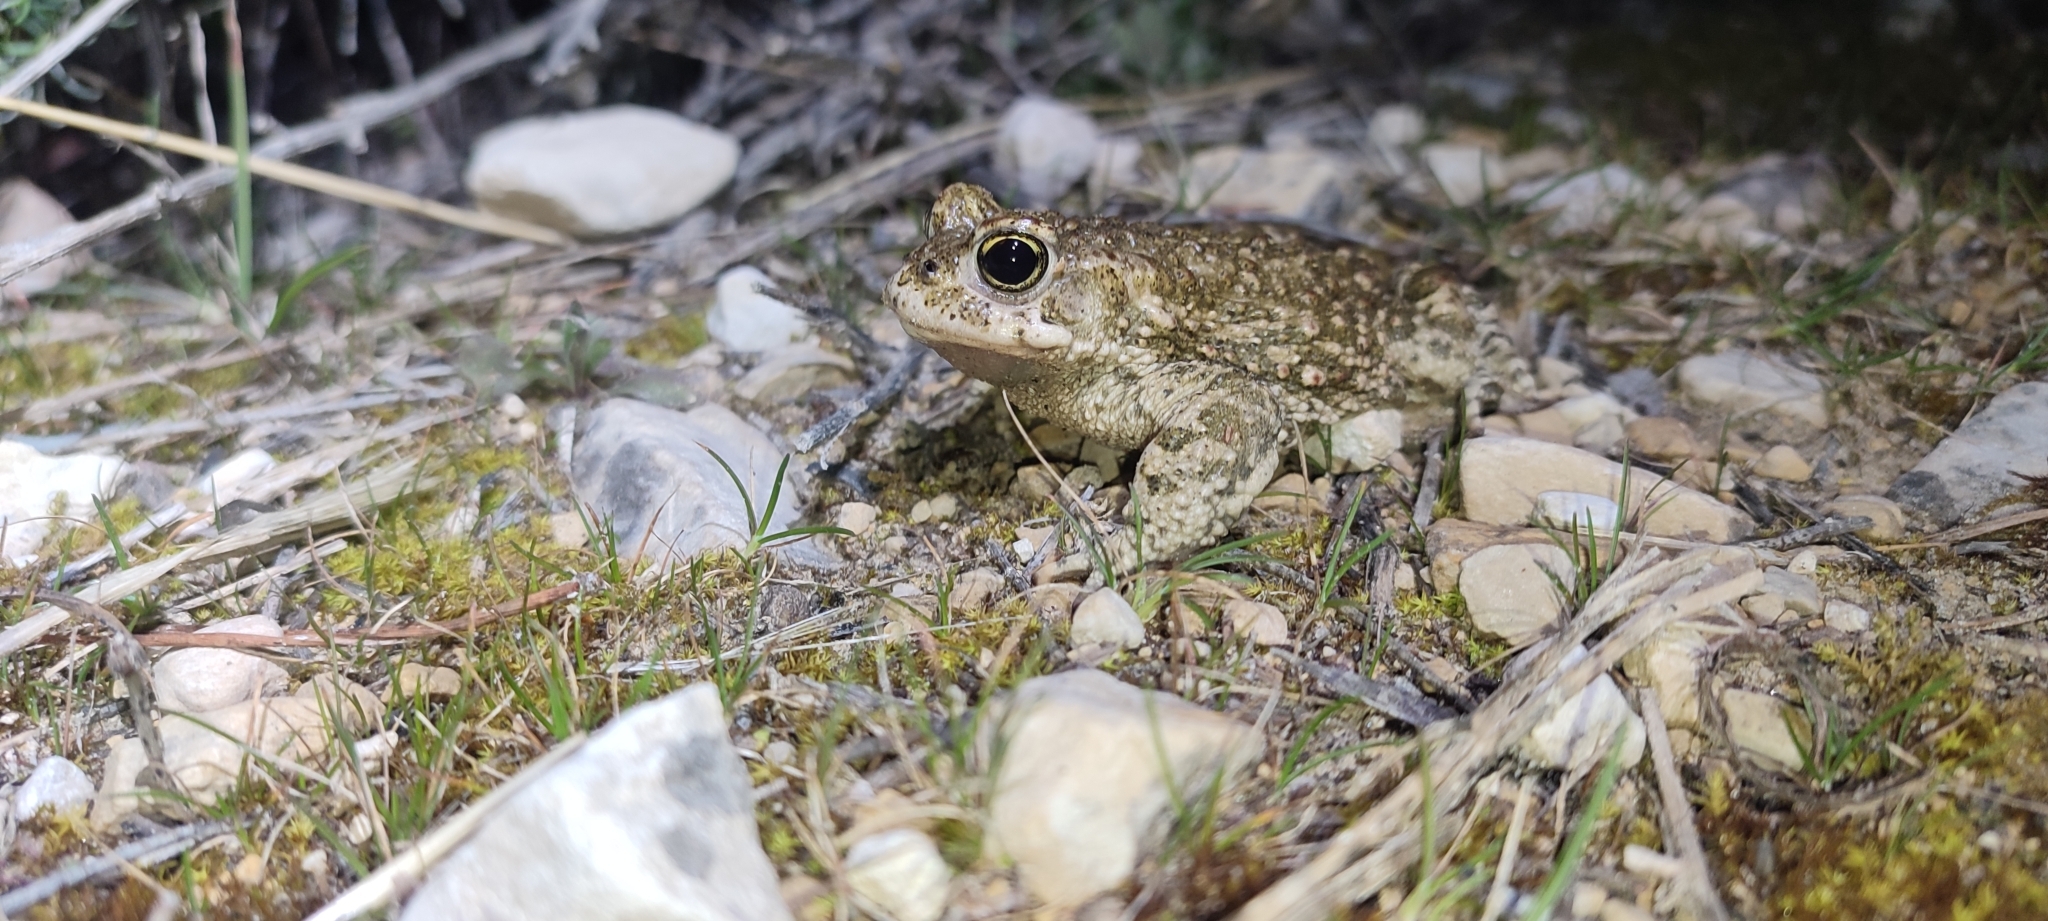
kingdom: Animalia
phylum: Chordata
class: Amphibia
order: Anura
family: Bufonidae
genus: Epidalea
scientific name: Epidalea calamita
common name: Natterjack toad
